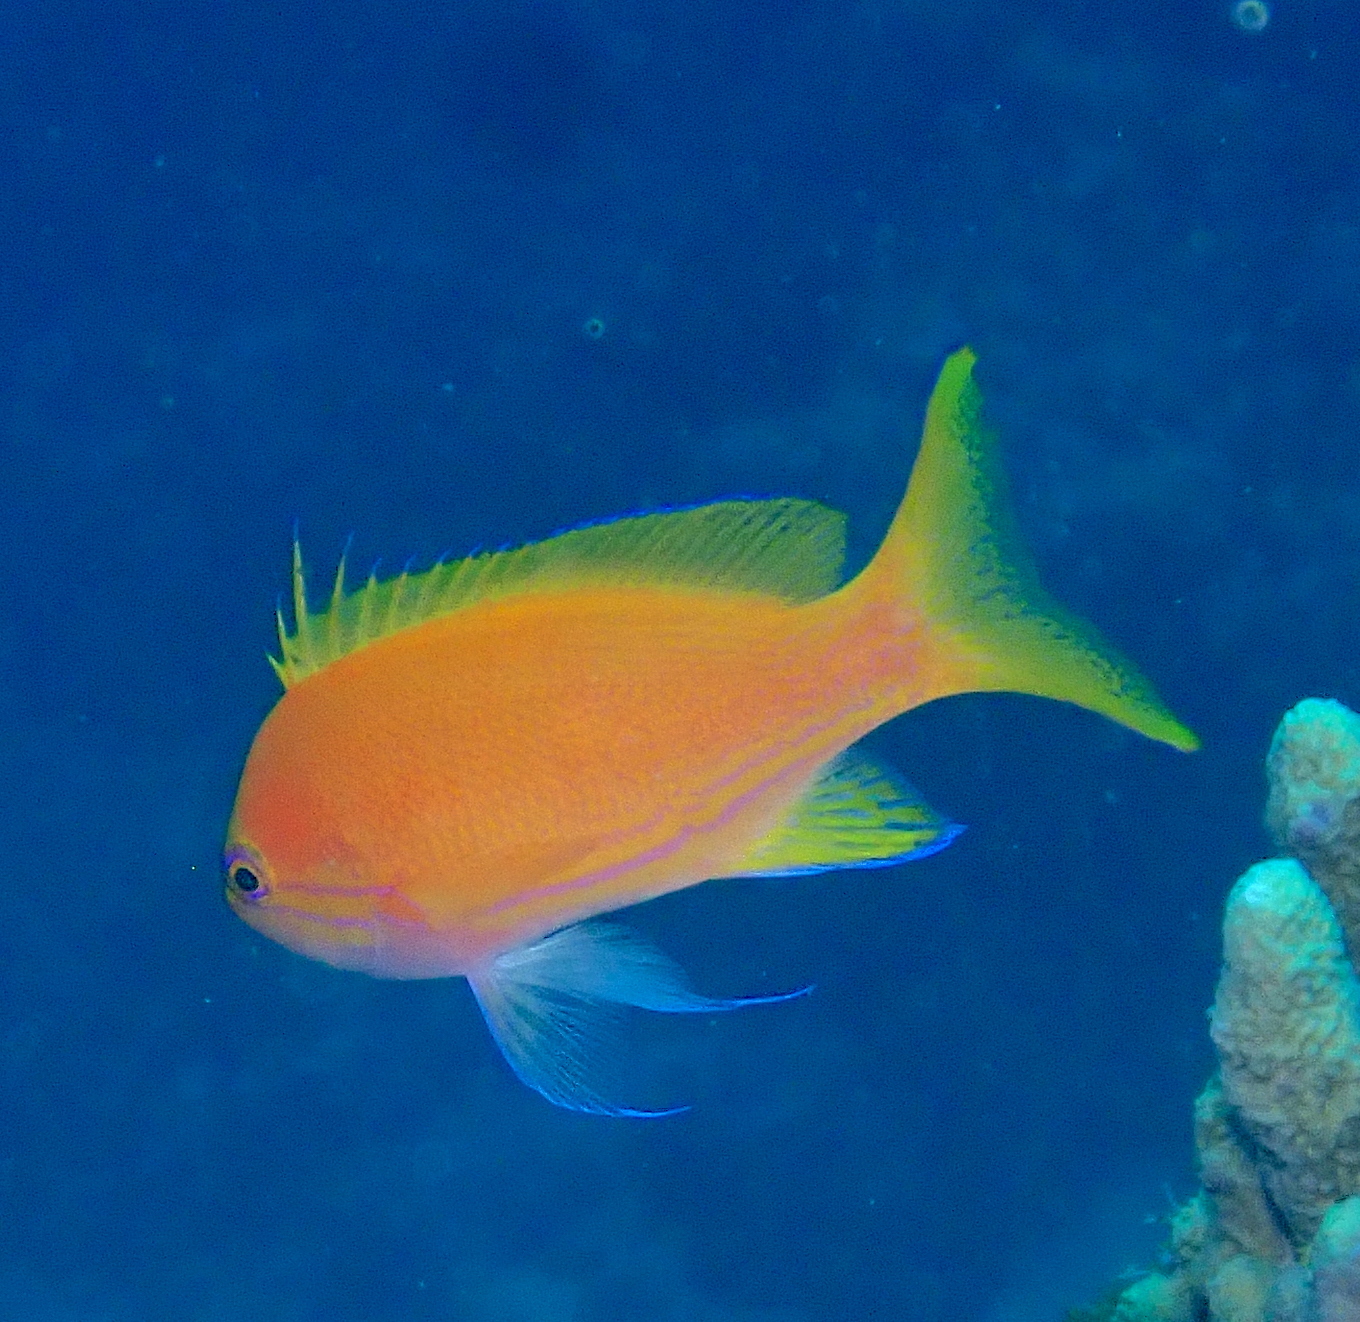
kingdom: Animalia
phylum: Chordata
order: Perciformes
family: Serranidae
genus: Pseudanthias
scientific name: Pseudanthias pleurotaenia
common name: Mirror basslet
